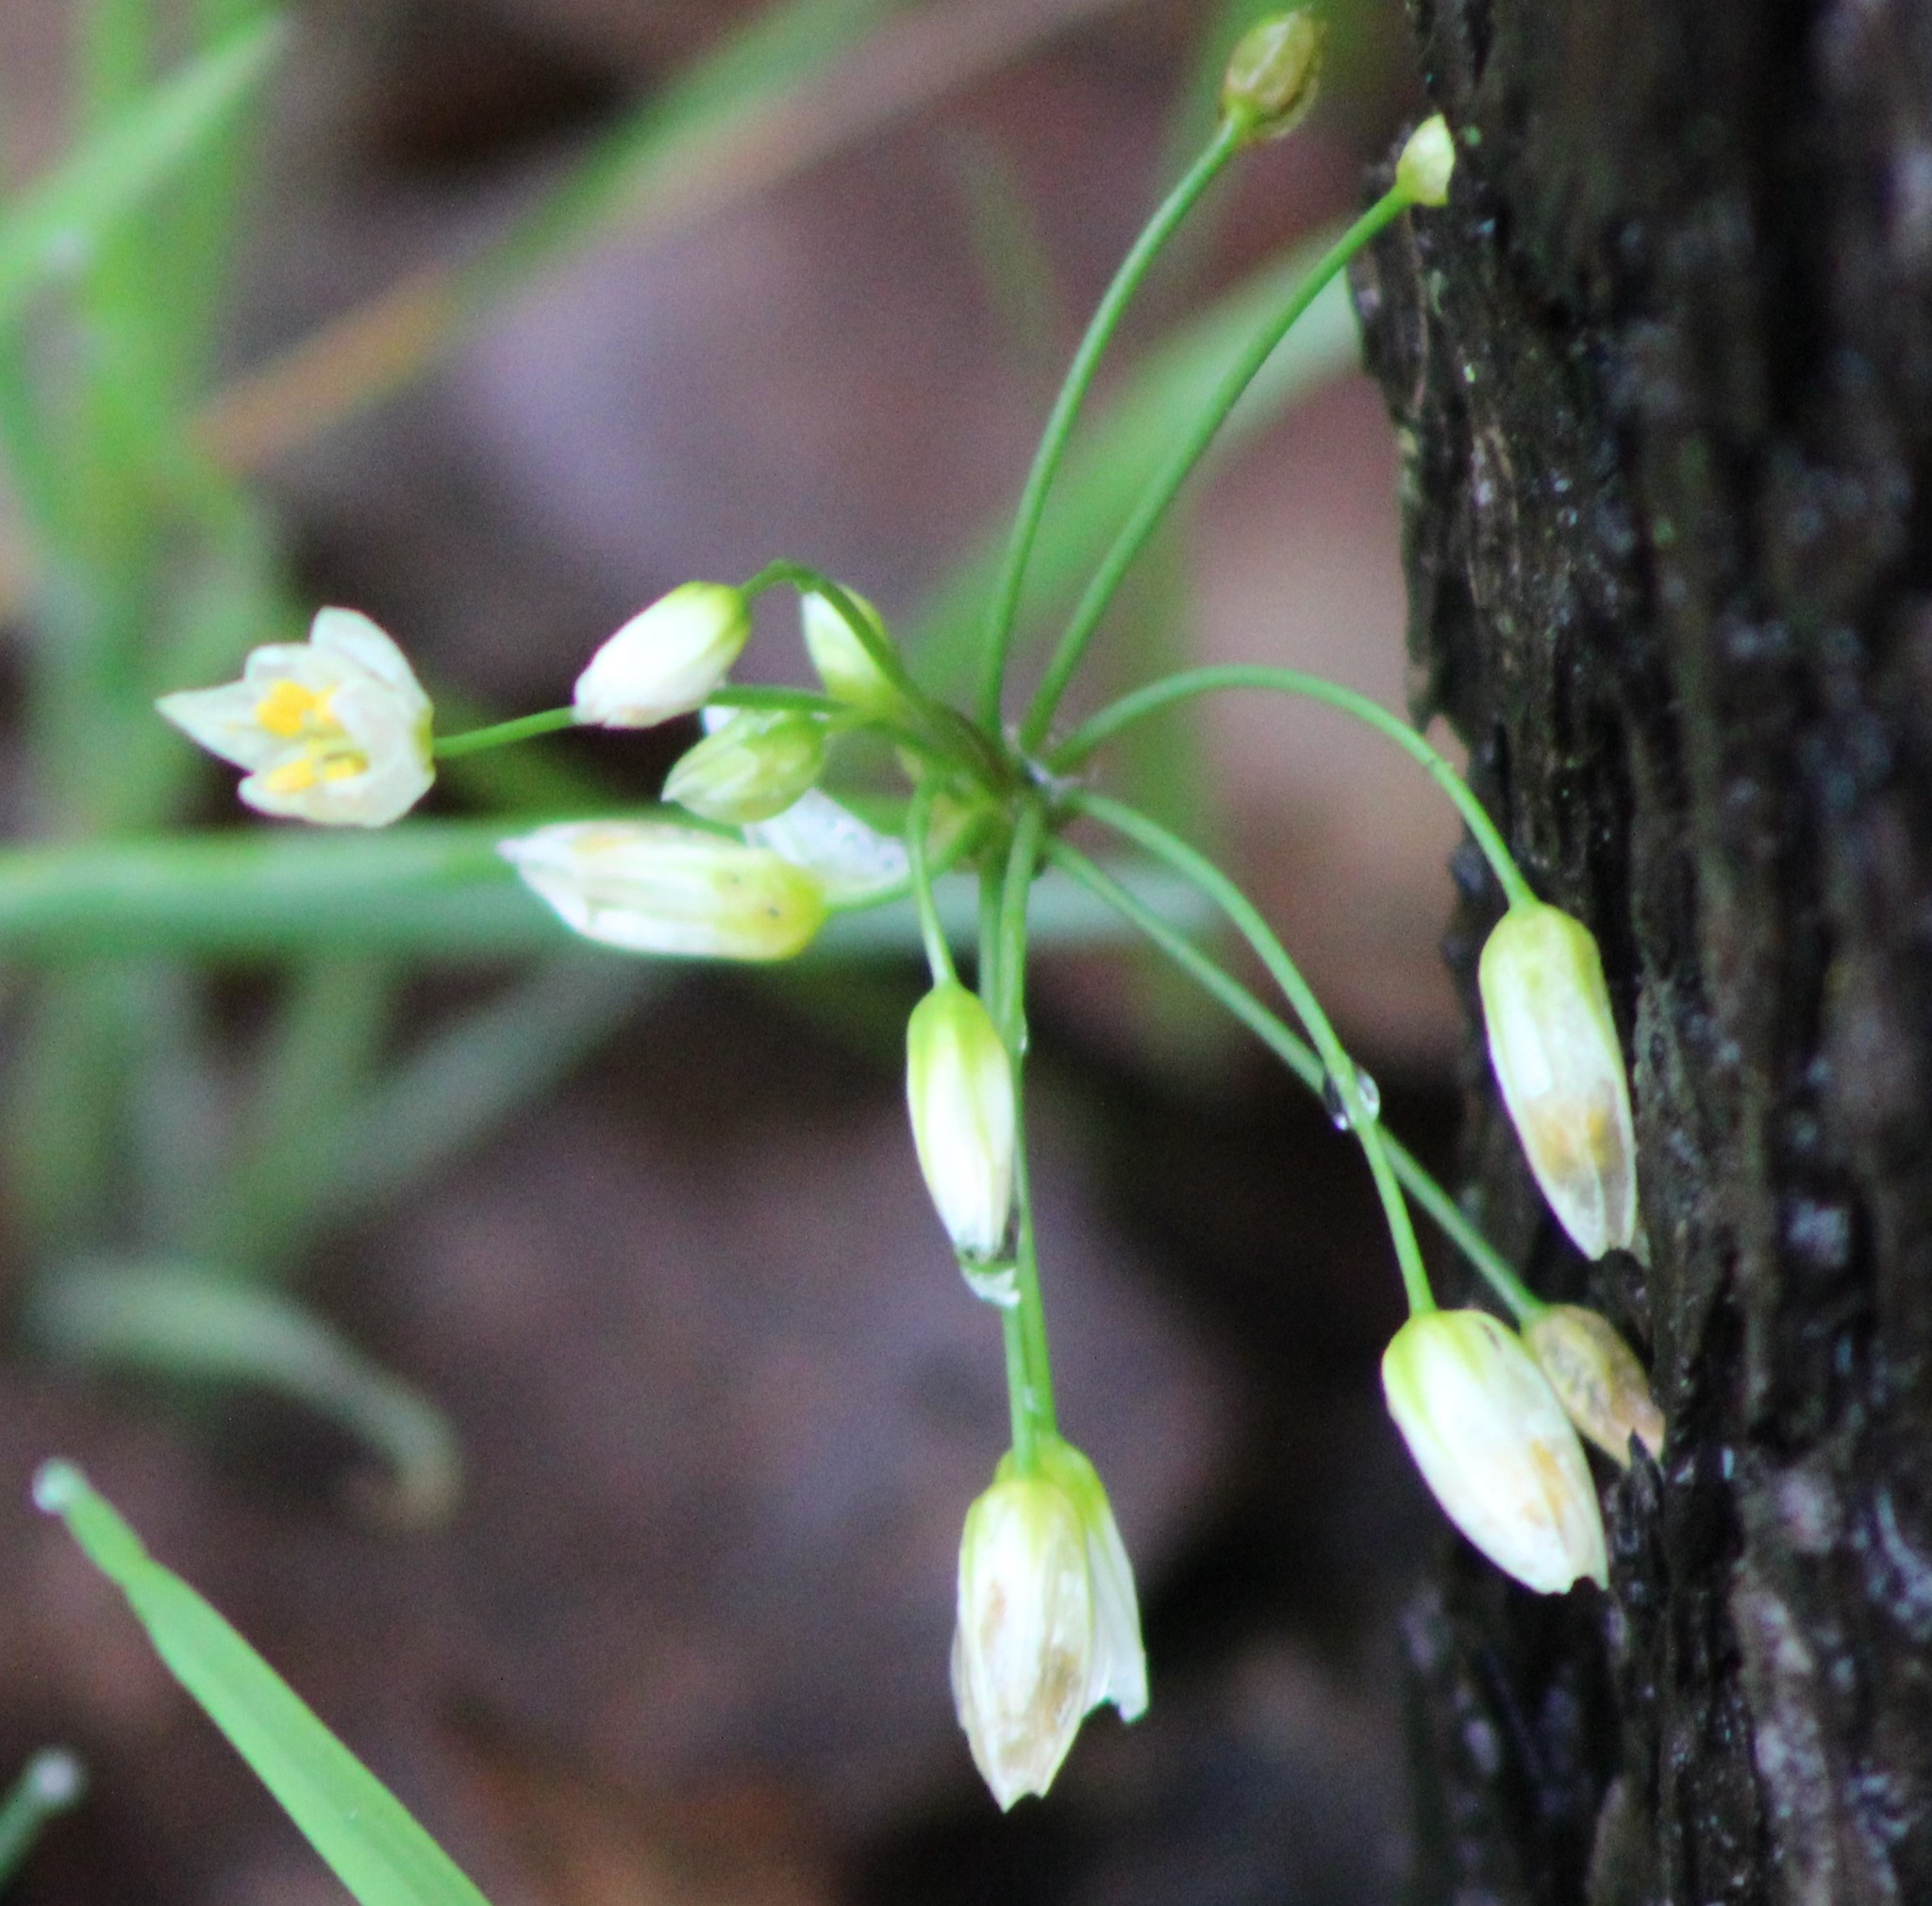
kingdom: Plantae
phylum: Tracheophyta
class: Liliopsida
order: Asparagales
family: Amaryllidaceae
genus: Nothoscordum
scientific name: Nothoscordum bivalve
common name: Crow-poison
